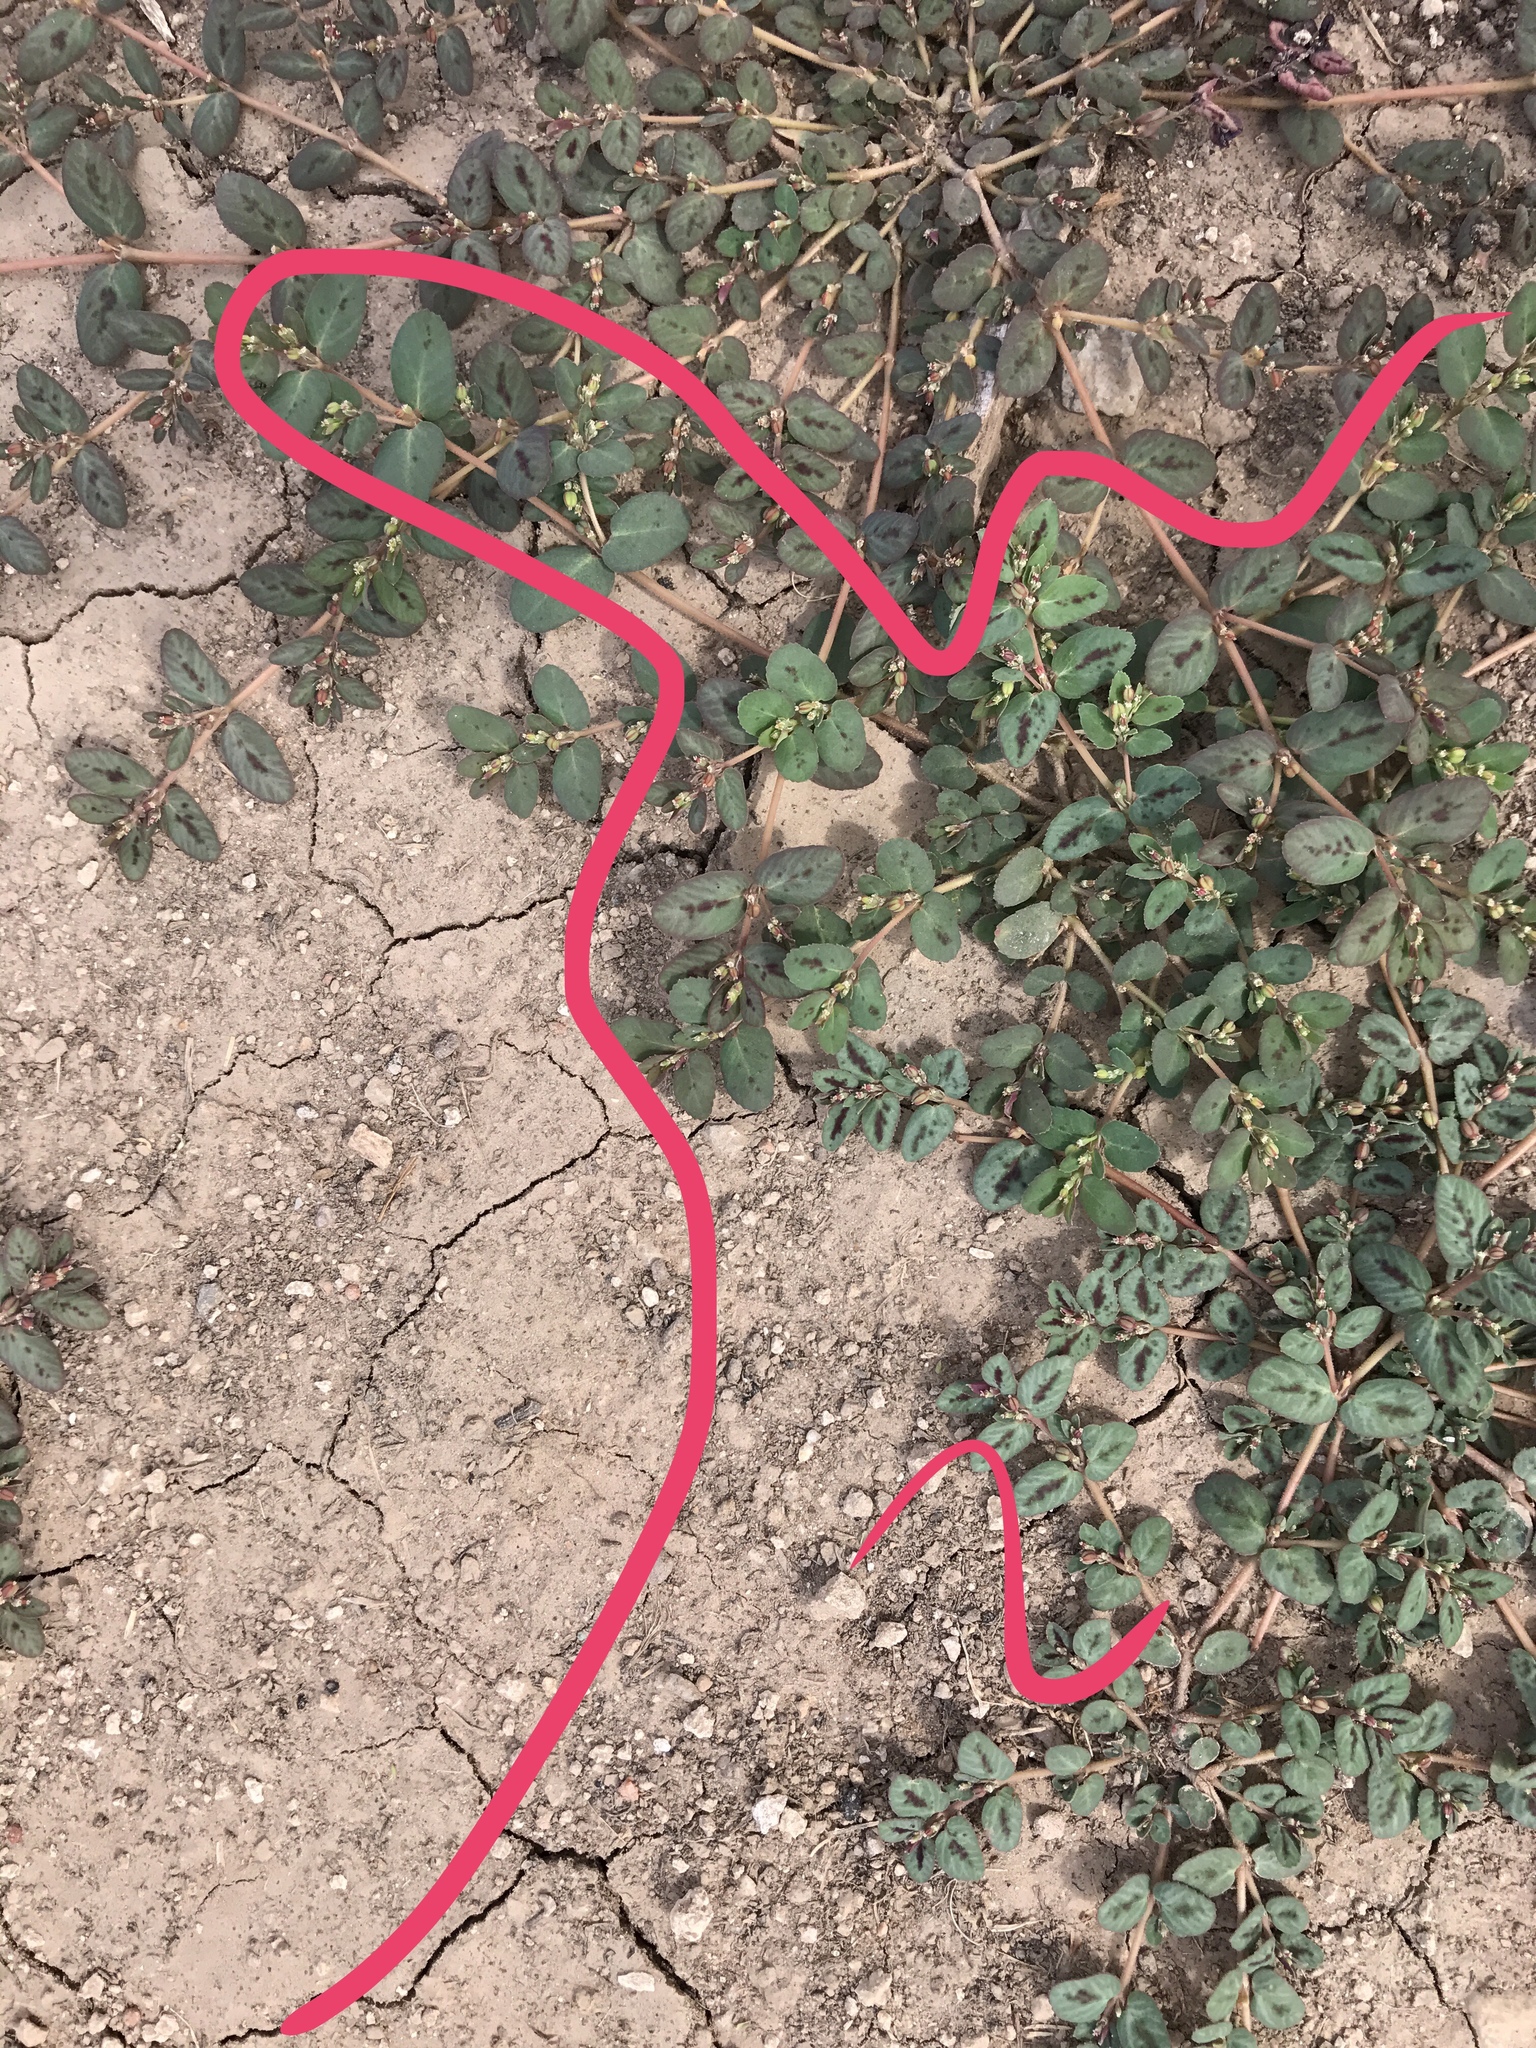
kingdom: Plantae
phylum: Tracheophyta
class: Magnoliopsida
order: Malpighiales
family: Euphorbiaceae
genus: Euphorbia
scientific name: Euphorbia abramsiana
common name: Abram's spurge
